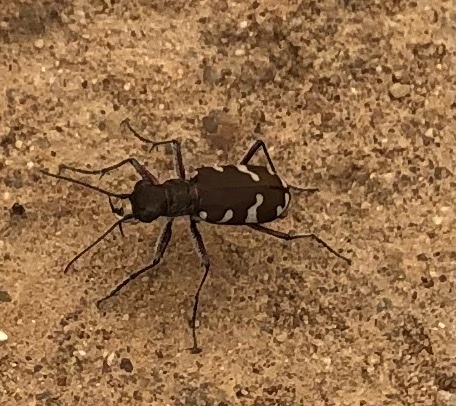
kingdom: Animalia
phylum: Arthropoda
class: Insecta
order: Coleoptera
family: Carabidae
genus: Cicindela
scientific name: Cicindela hybrida
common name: Northern dune tiger beetle
